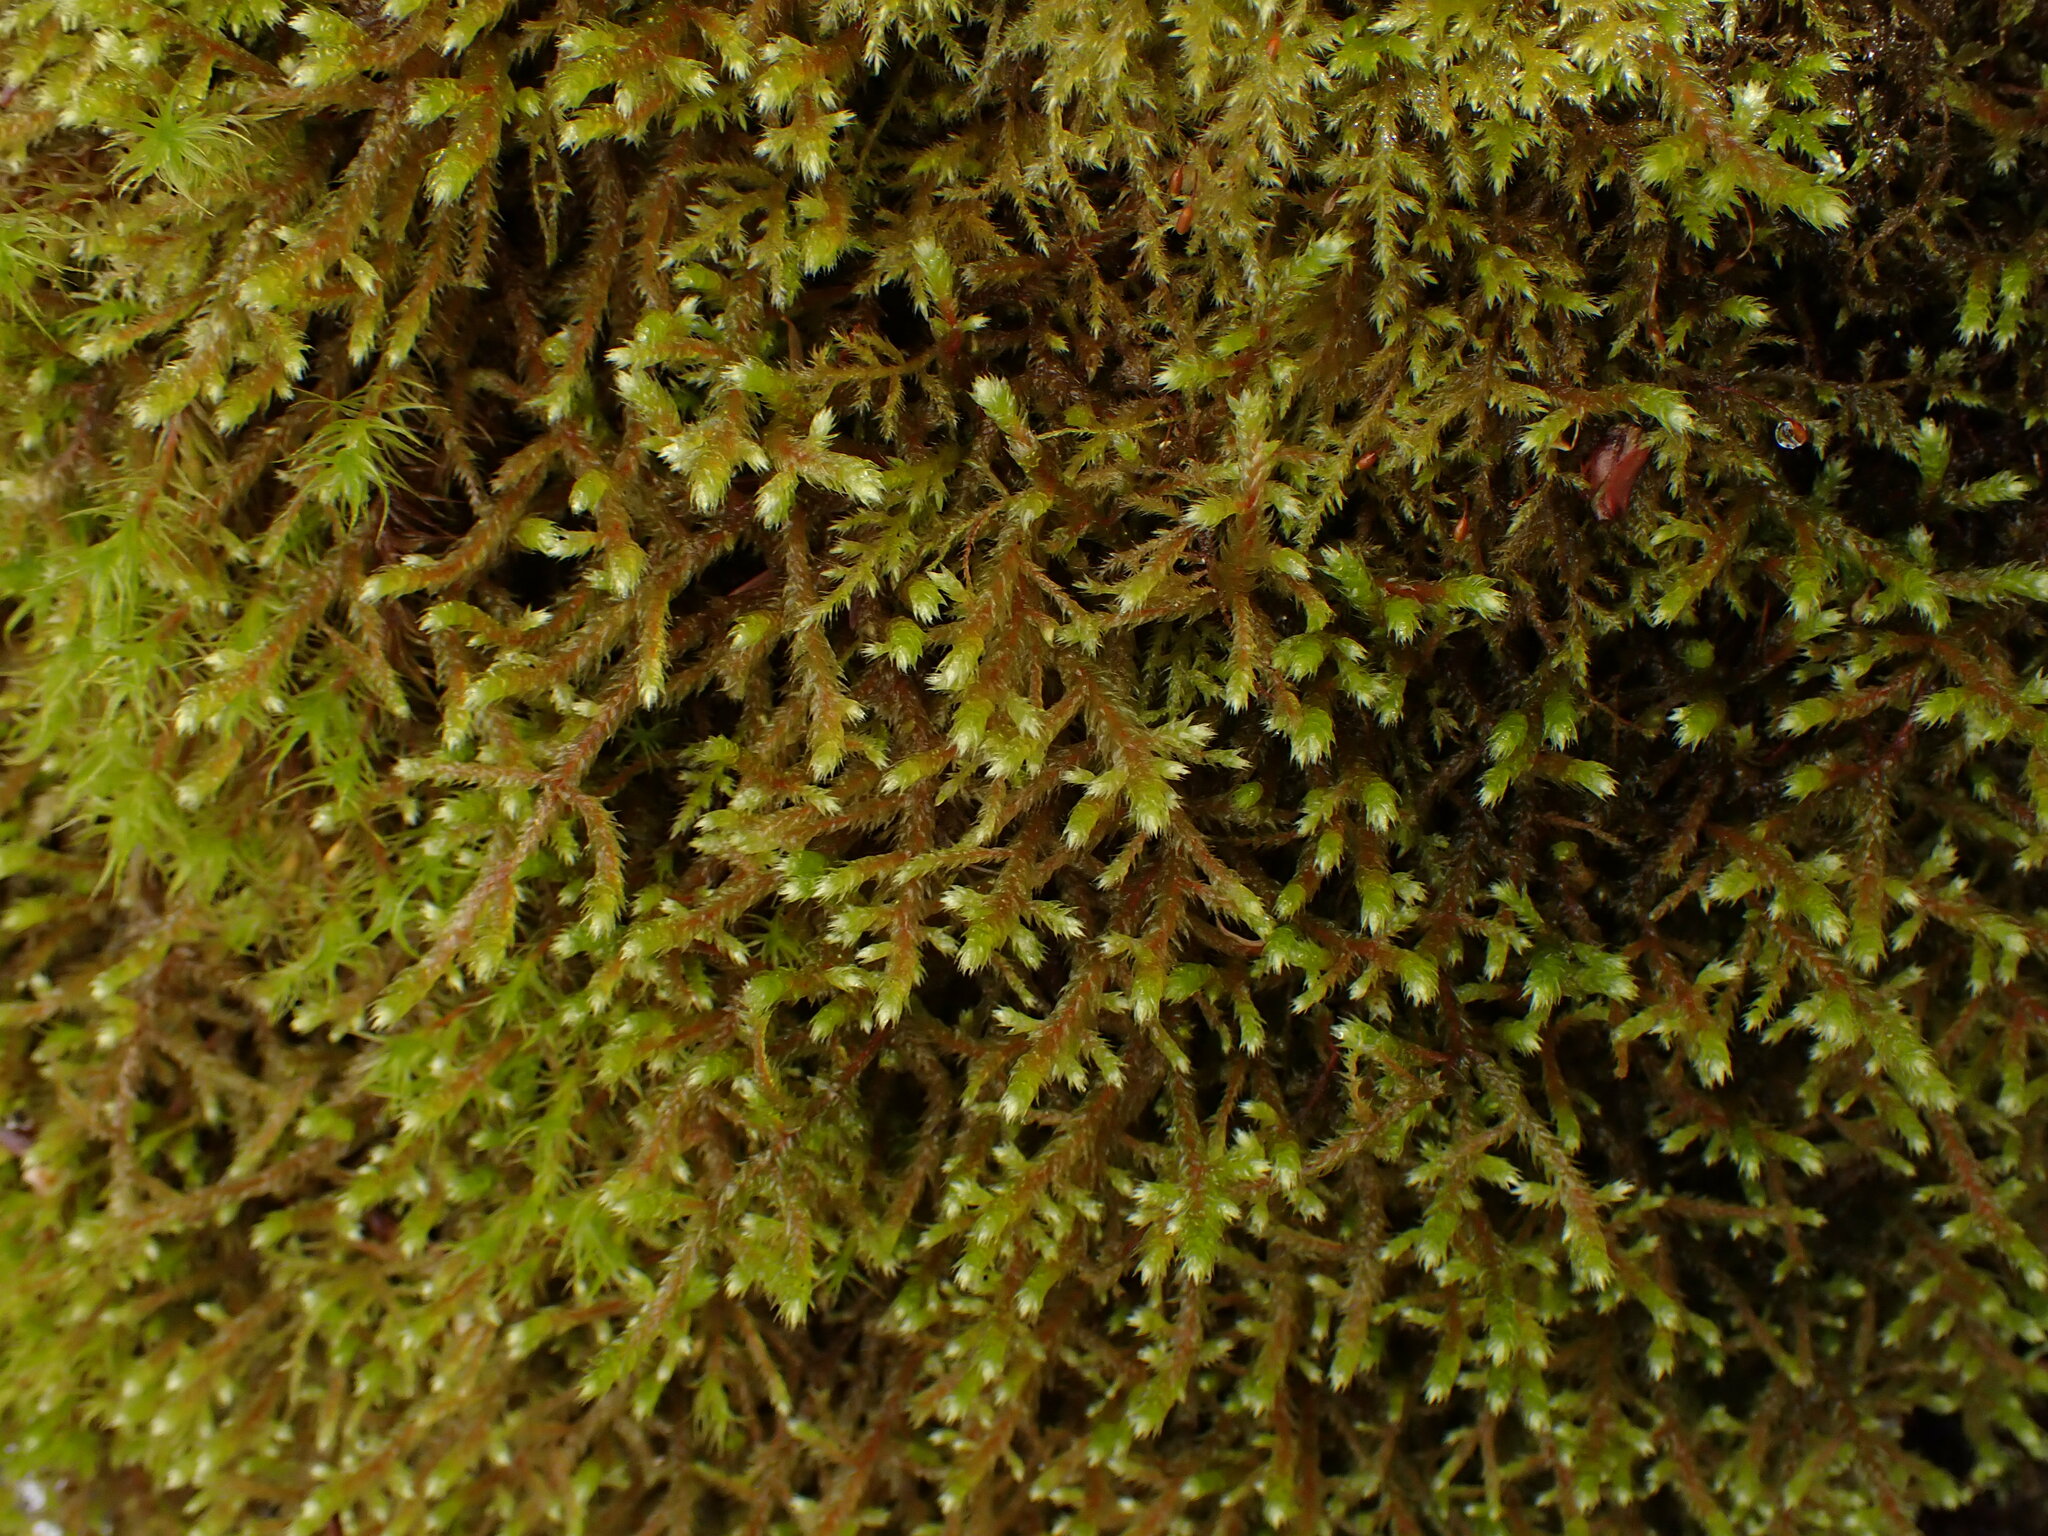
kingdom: Plantae
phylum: Bryophyta
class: Bryopsida
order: Hypnales
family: Antitrichiaceae
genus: Antitrichia
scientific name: Antitrichia curtipendula
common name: Pendulous wing-moss
